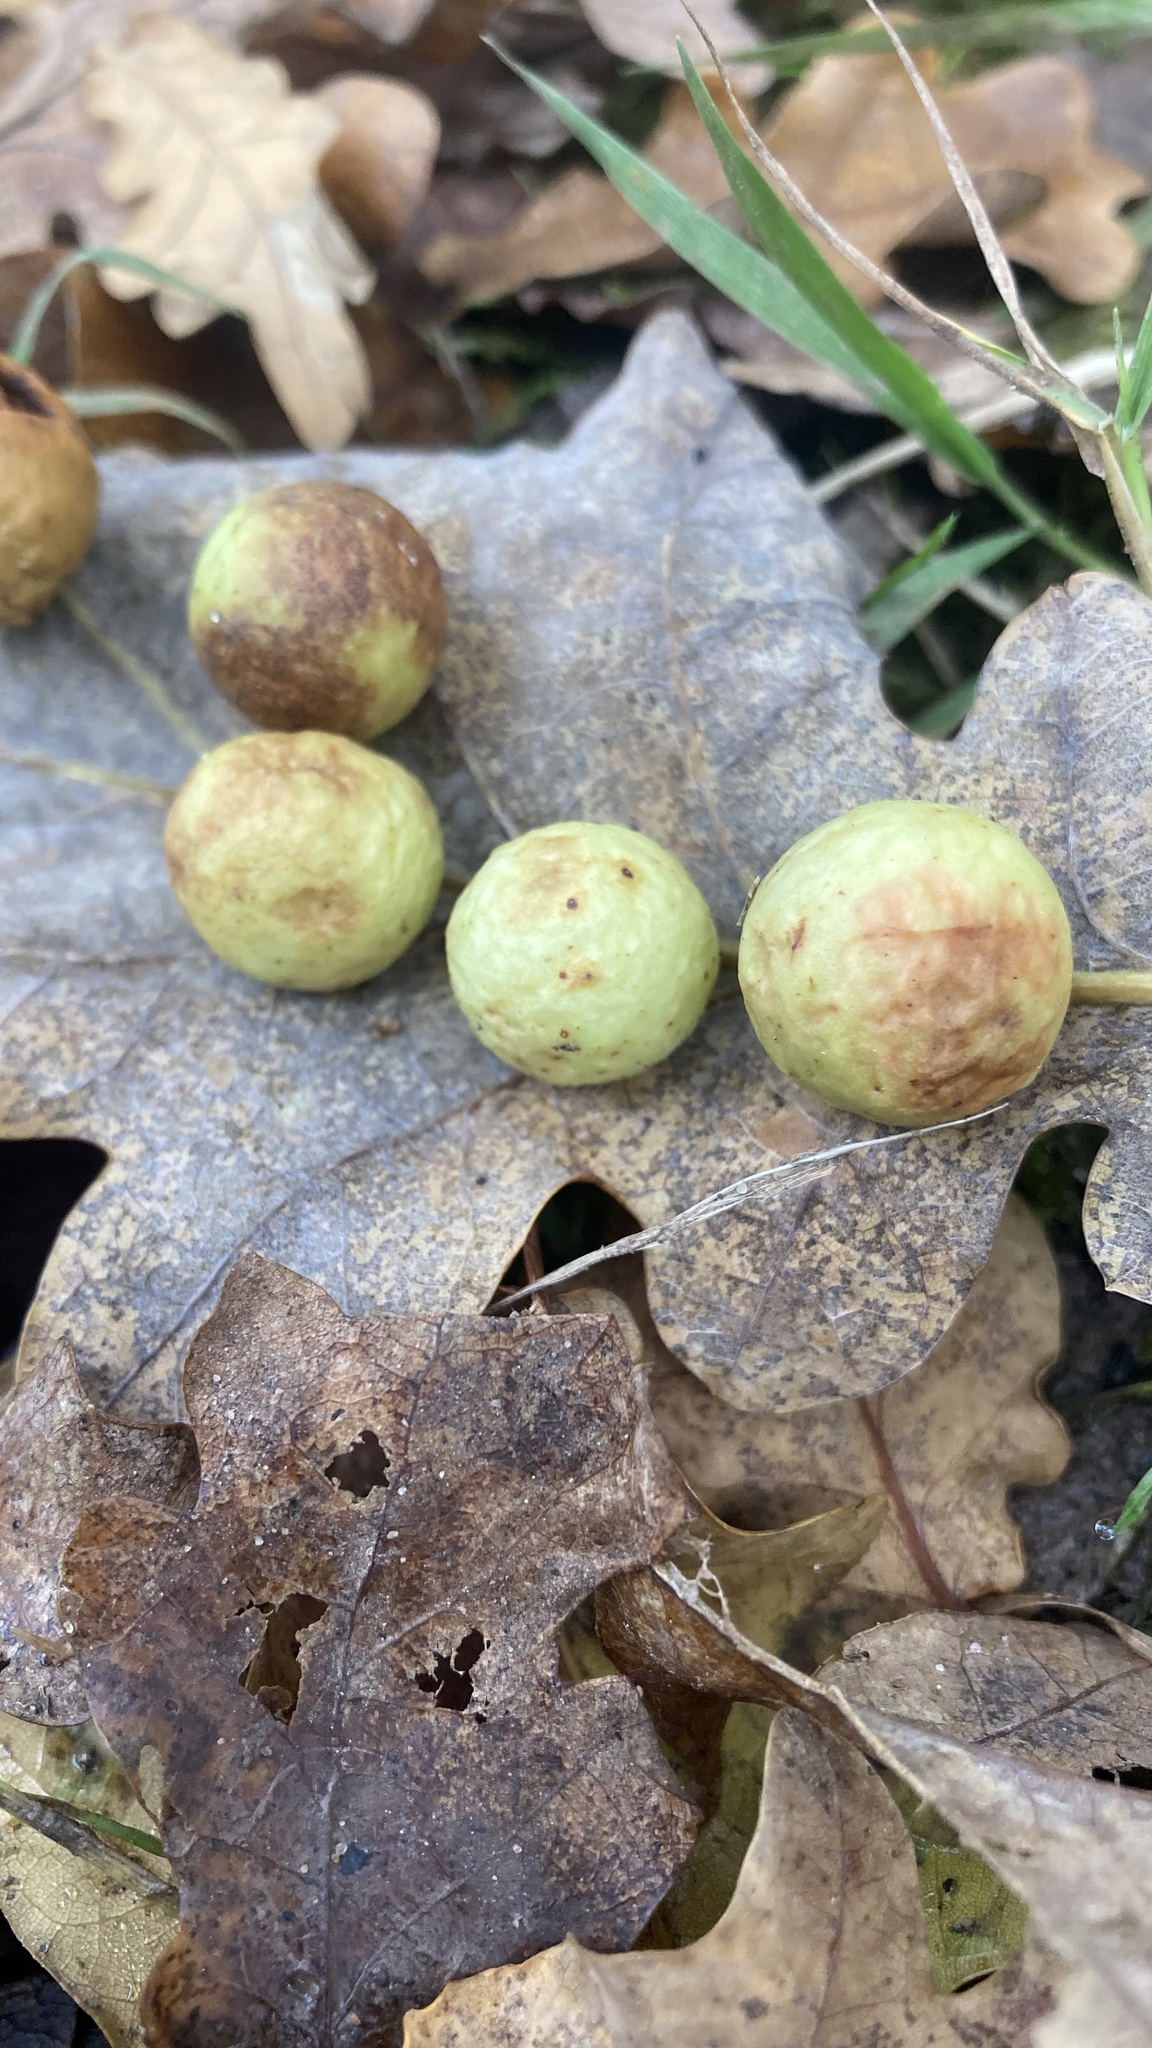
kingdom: Animalia
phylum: Arthropoda
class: Insecta
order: Hymenoptera
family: Cynipidae
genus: Cynips
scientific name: Cynips quercusfolii
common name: Cherry gall
